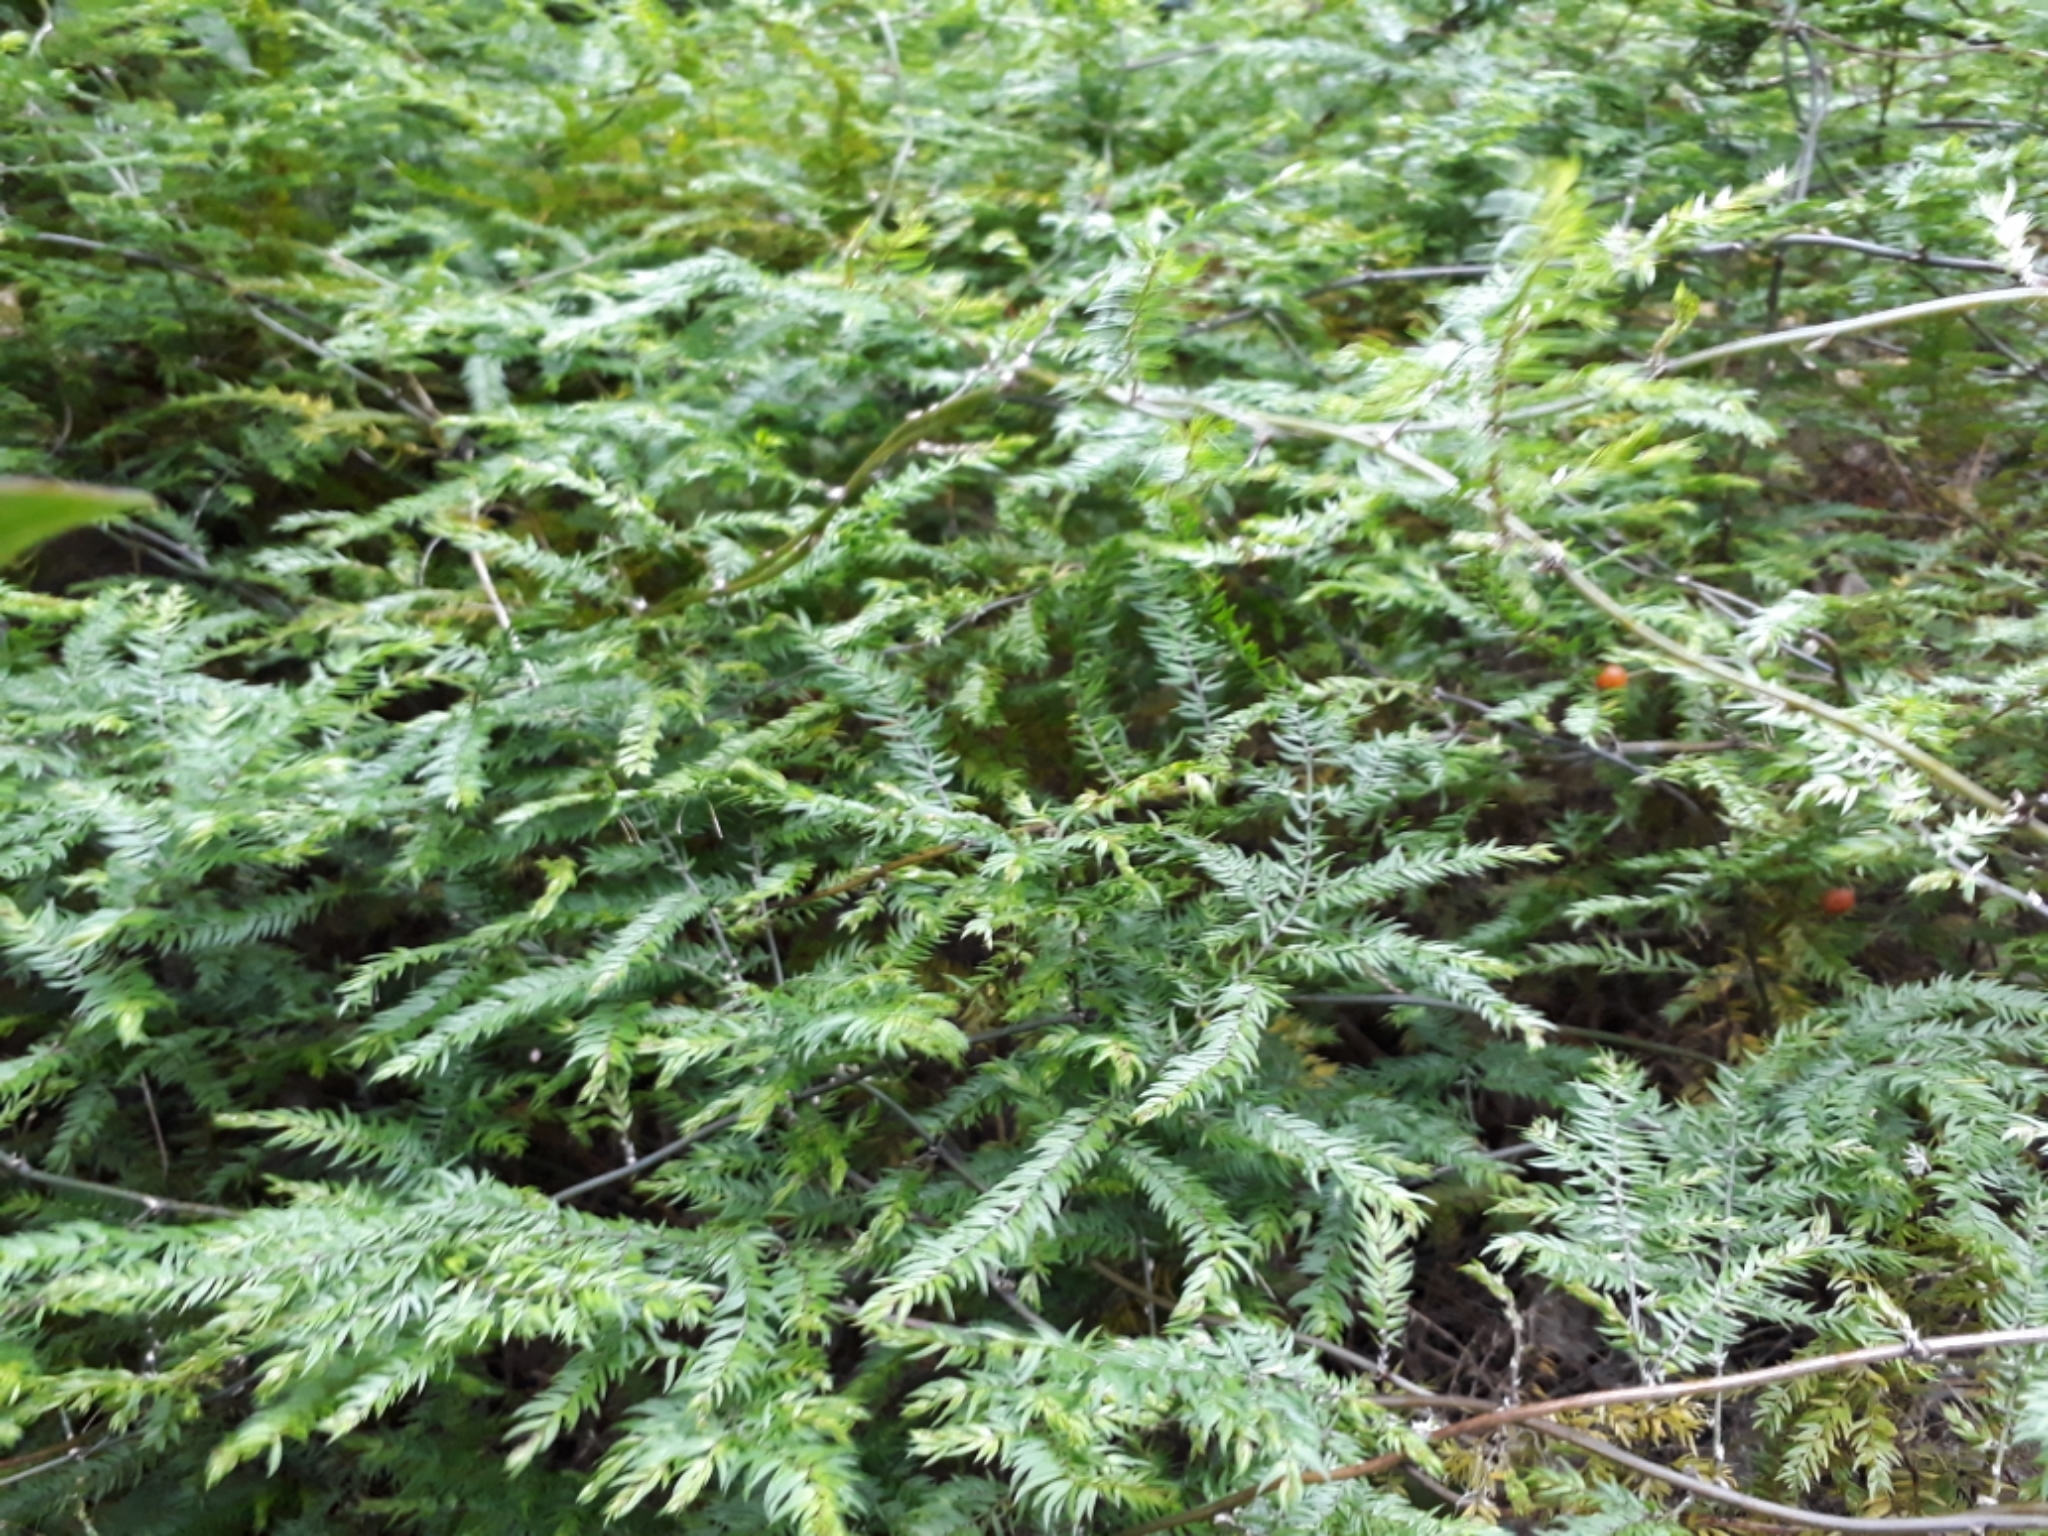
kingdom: Plantae
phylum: Tracheophyta
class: Liliopsida
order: Asparagales
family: Asparagaceae
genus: Asparagus
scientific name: Asparagus scandens
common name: Asparagus-fern
